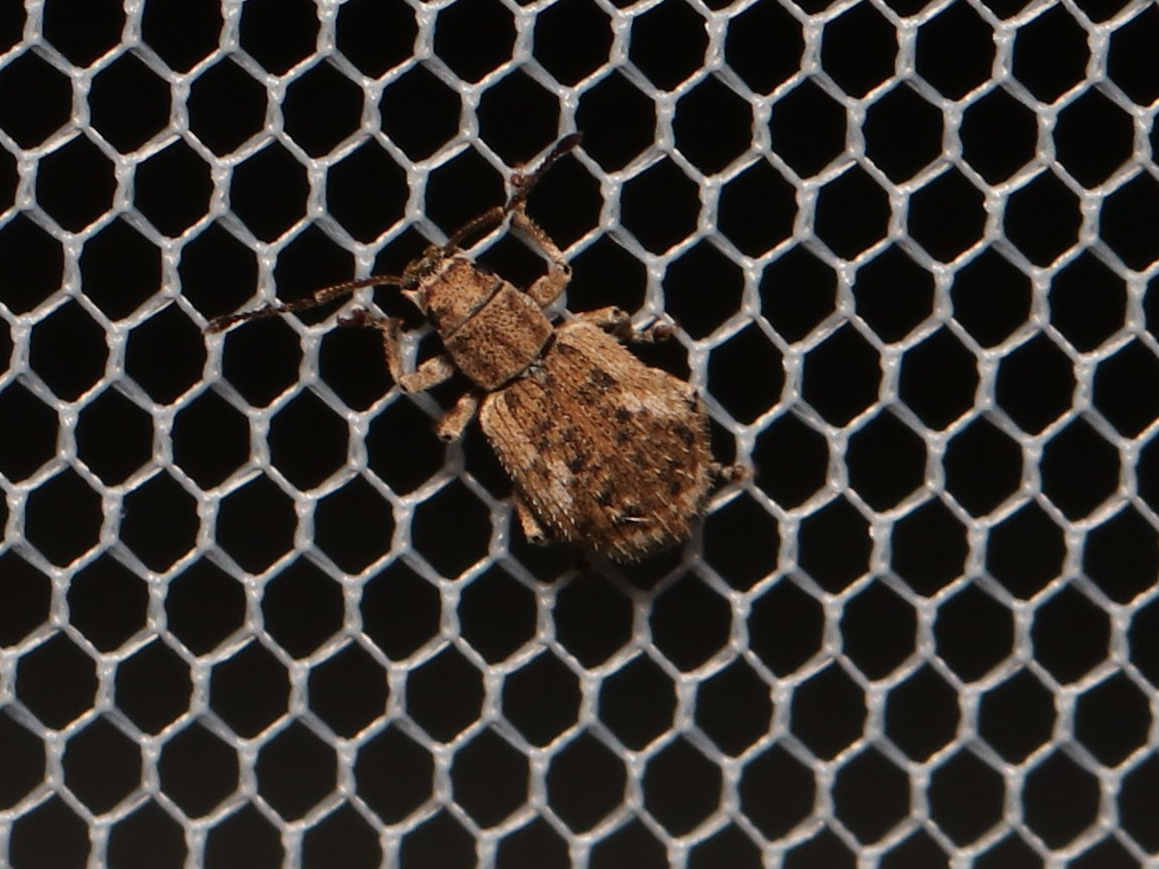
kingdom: Animalia
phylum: Arthropoda
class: Insecta
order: Coleoptera
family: Curculionidae
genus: Pseudoedophrys
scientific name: Pseudoedophrys hilleri
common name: Weevil
